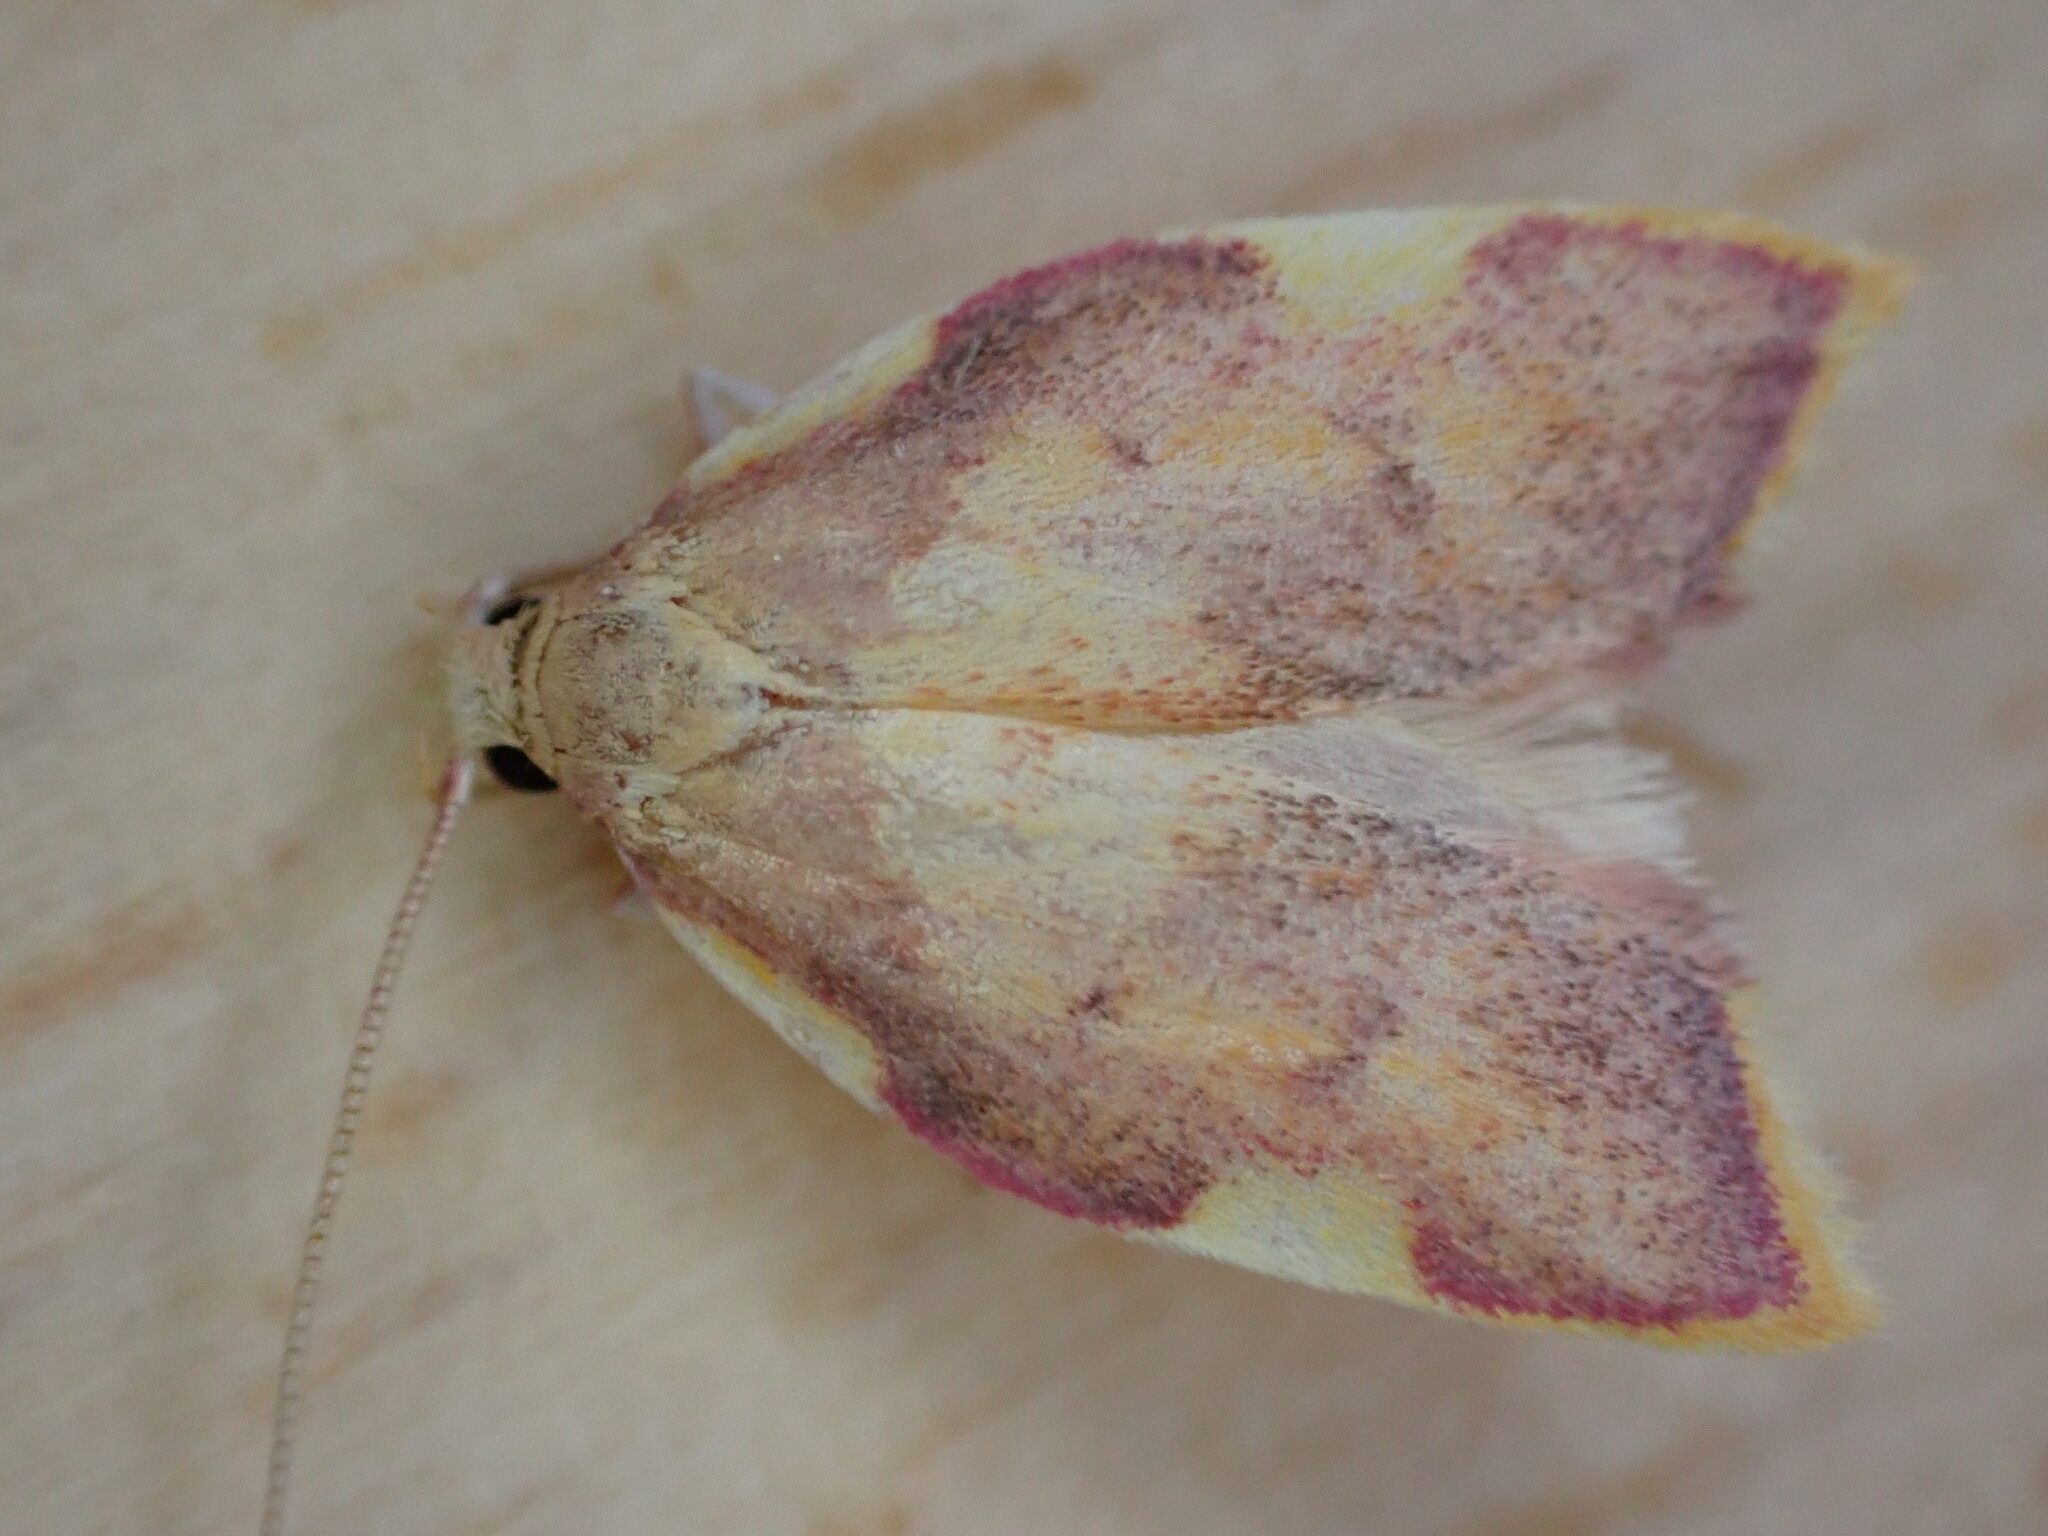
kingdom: Animalia
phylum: Arthropoda
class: Insecta
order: Lepidoptera
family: Peleopodidae
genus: Carcina
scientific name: Carcina quercana
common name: Moth
